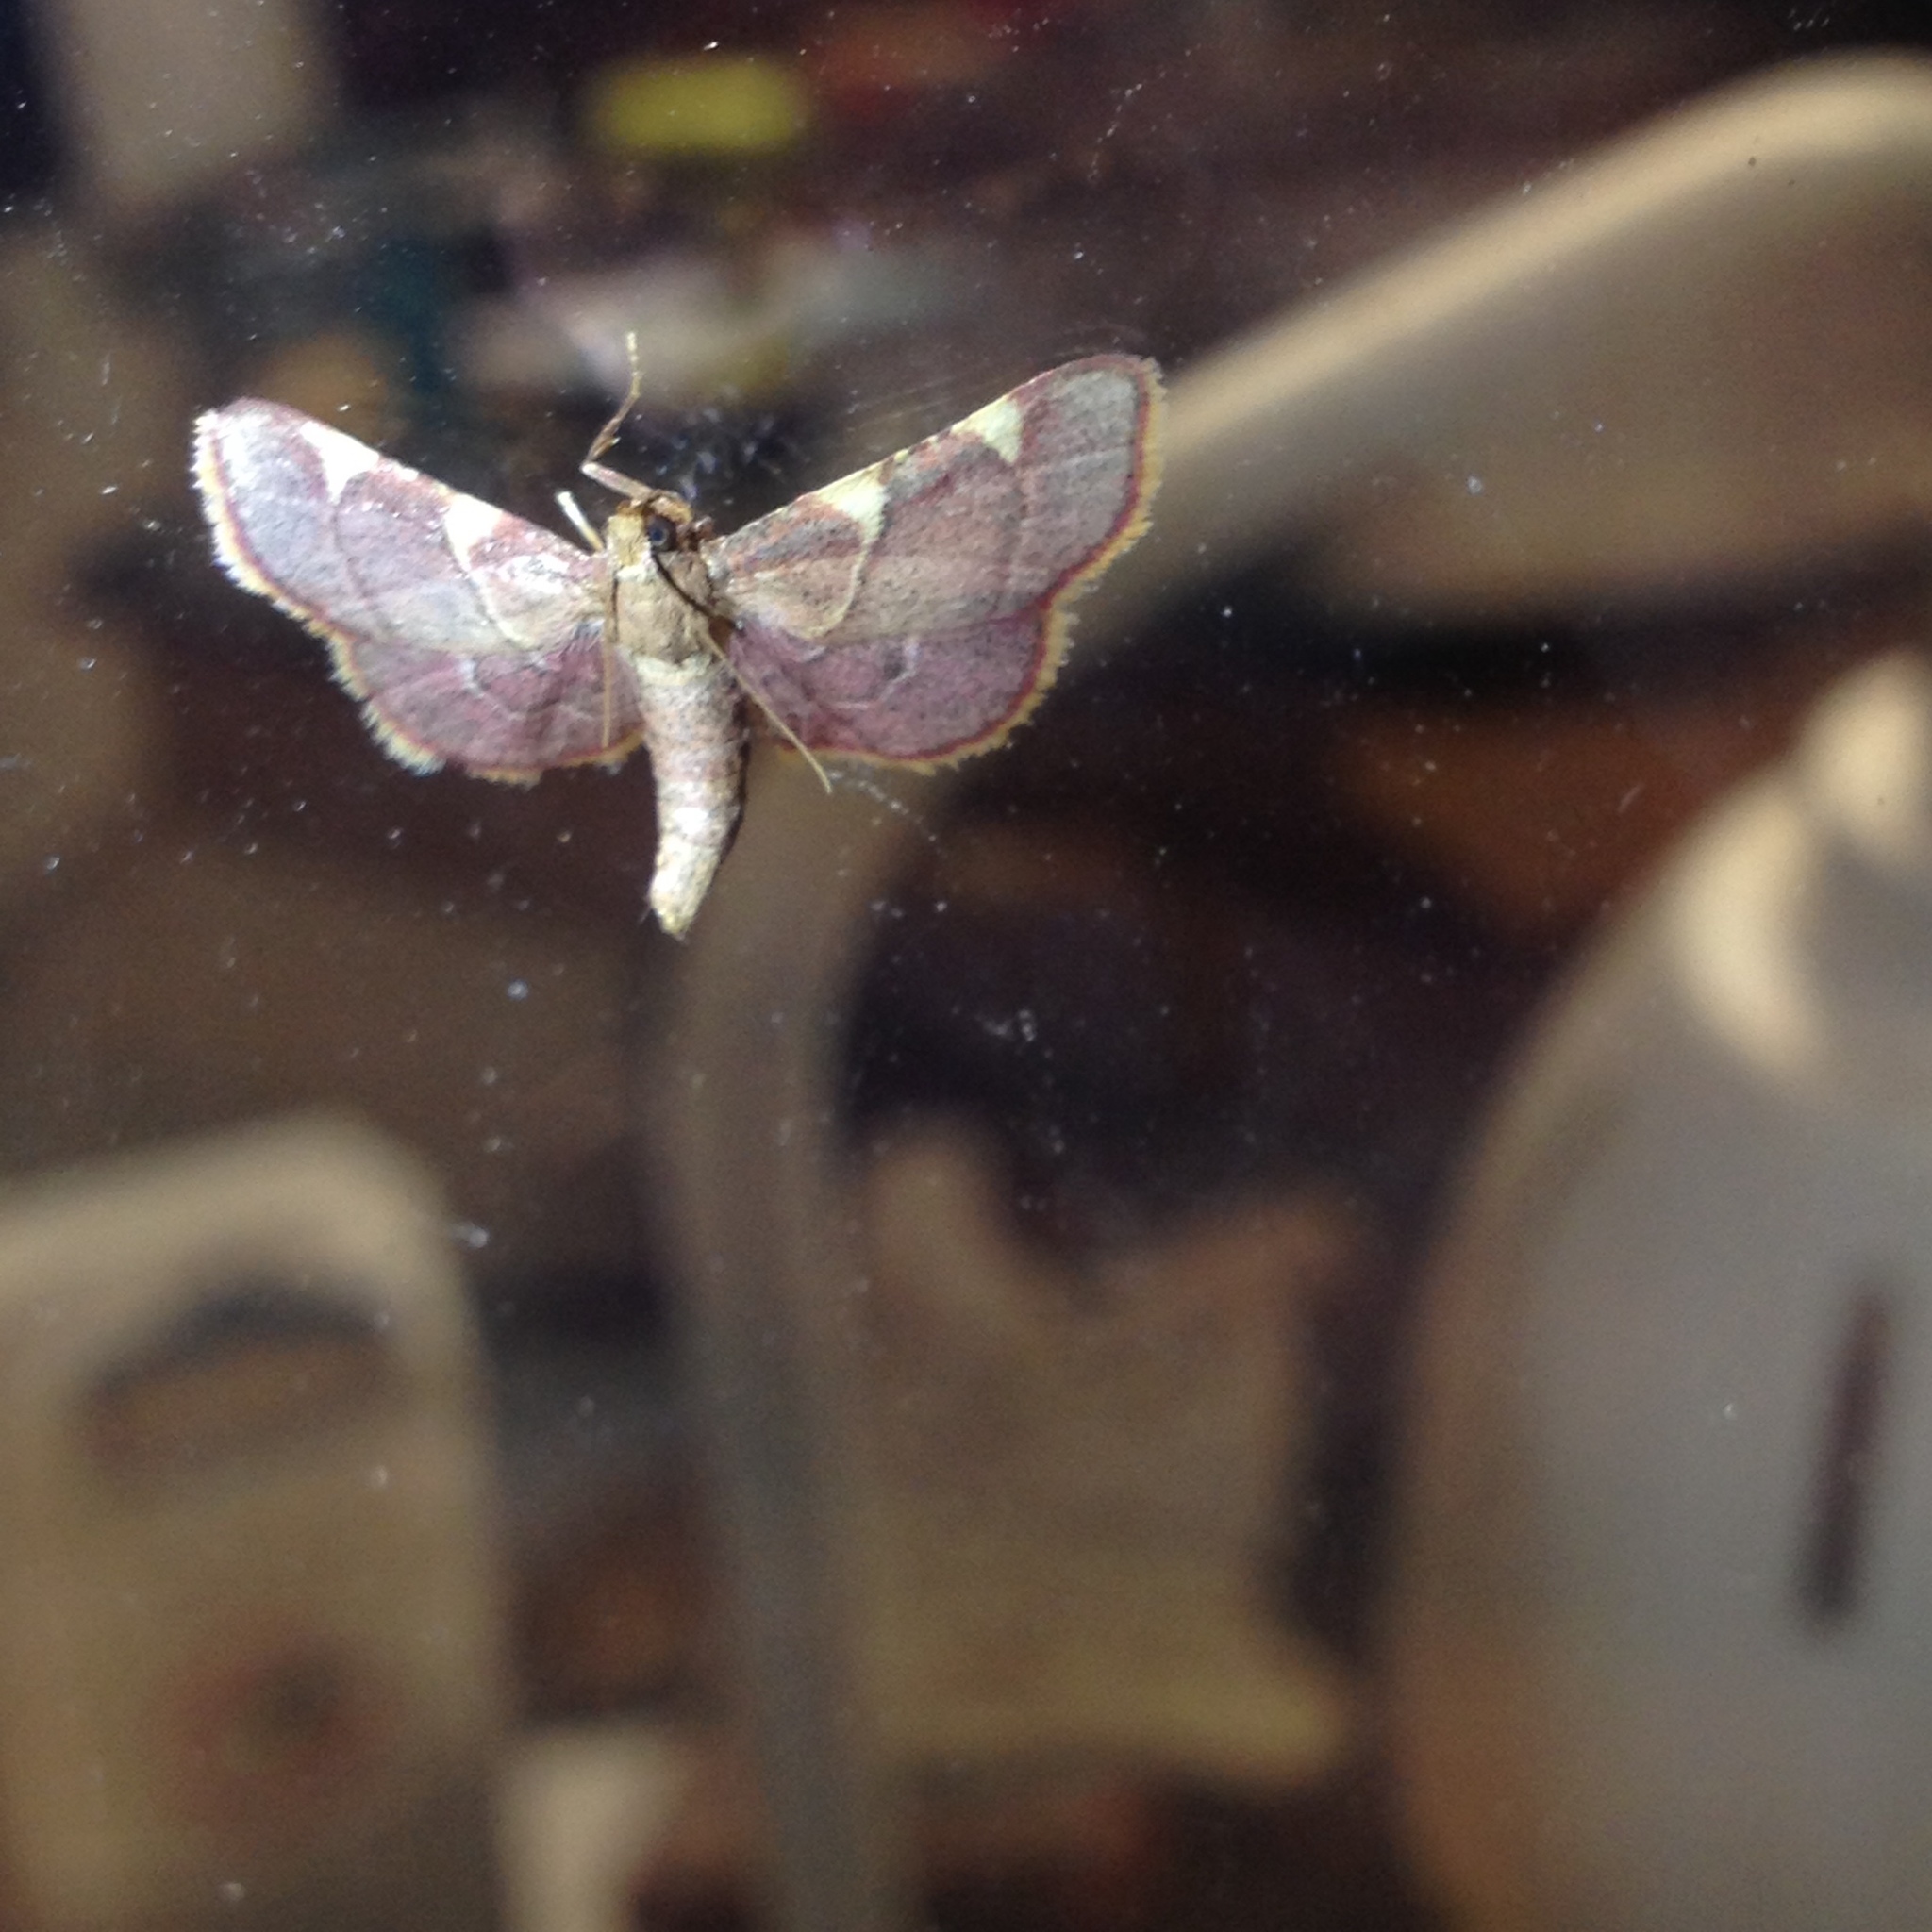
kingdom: Animalia
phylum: Arthropoda
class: Insecta
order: Lepidoptera
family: Pyralidae
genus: Hypsopygia
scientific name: Hypsopygia olinalis
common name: Yellow-fringed dolichomia moth
